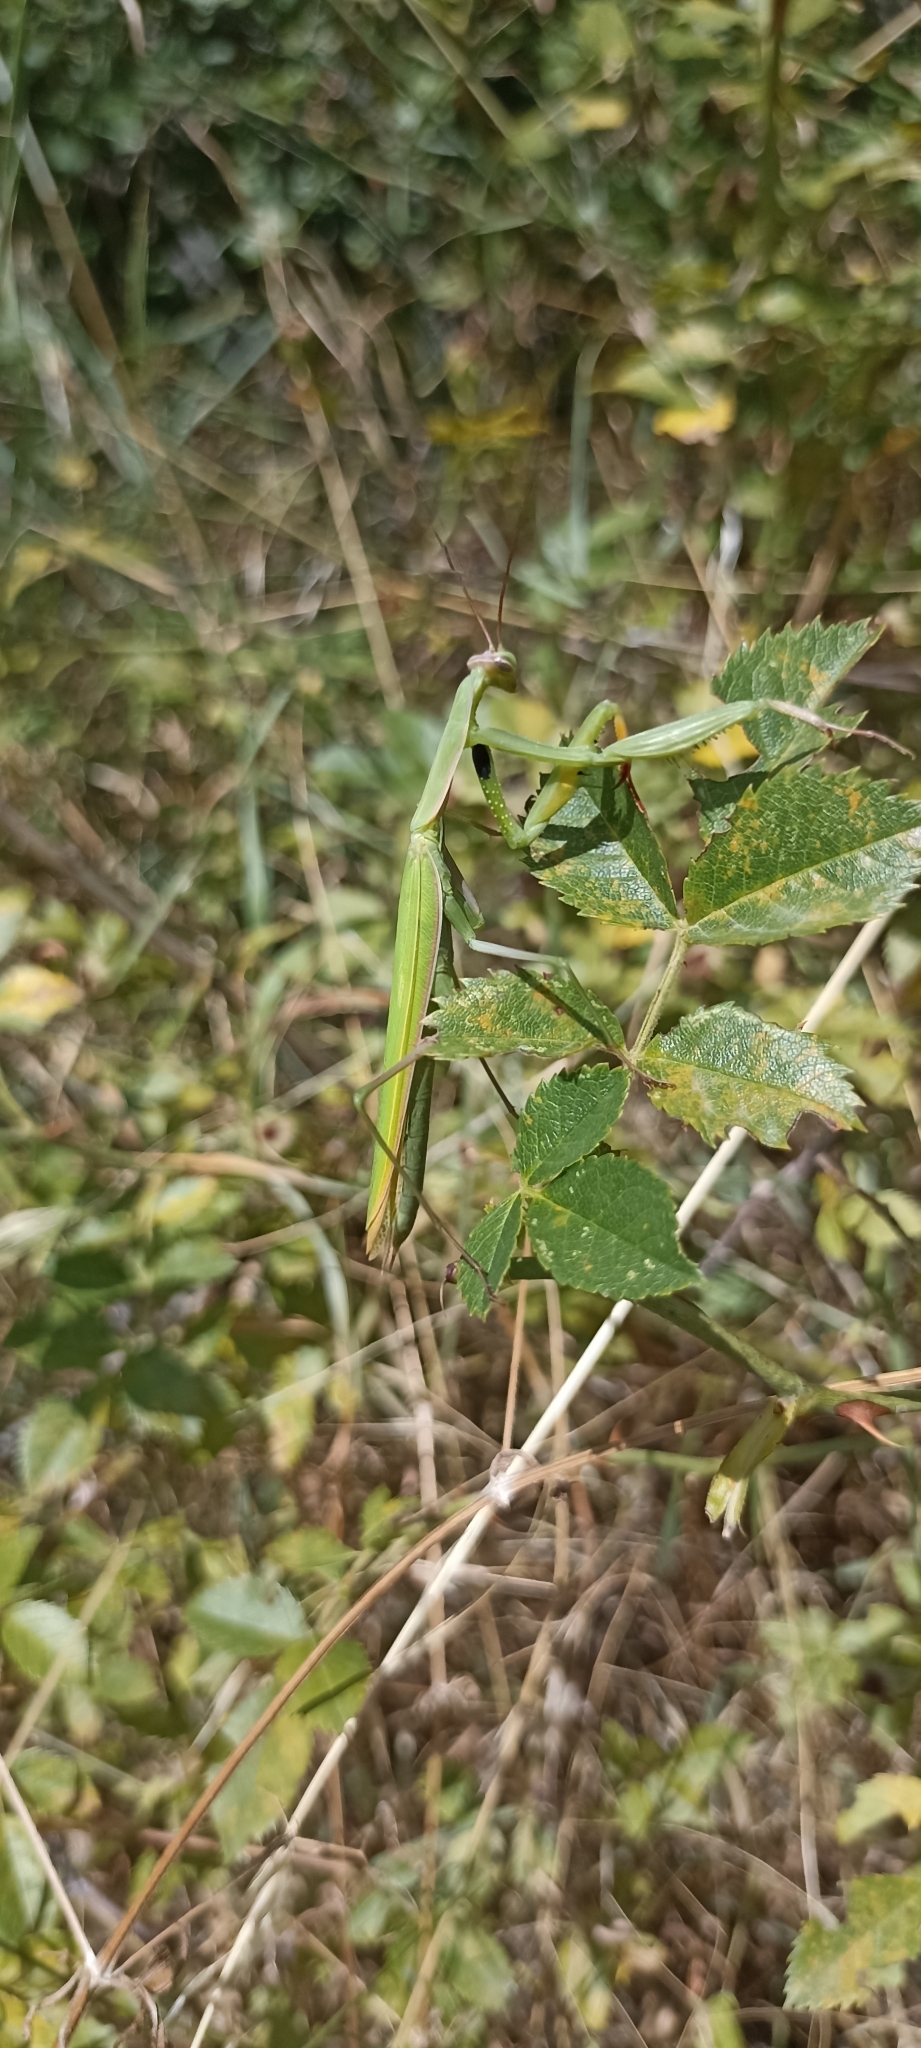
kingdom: Animalia
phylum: Arthropoda
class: Insecta
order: Mantodea
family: Mantidae
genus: Mantis
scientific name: Mantis religiosa
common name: Praying mantis
